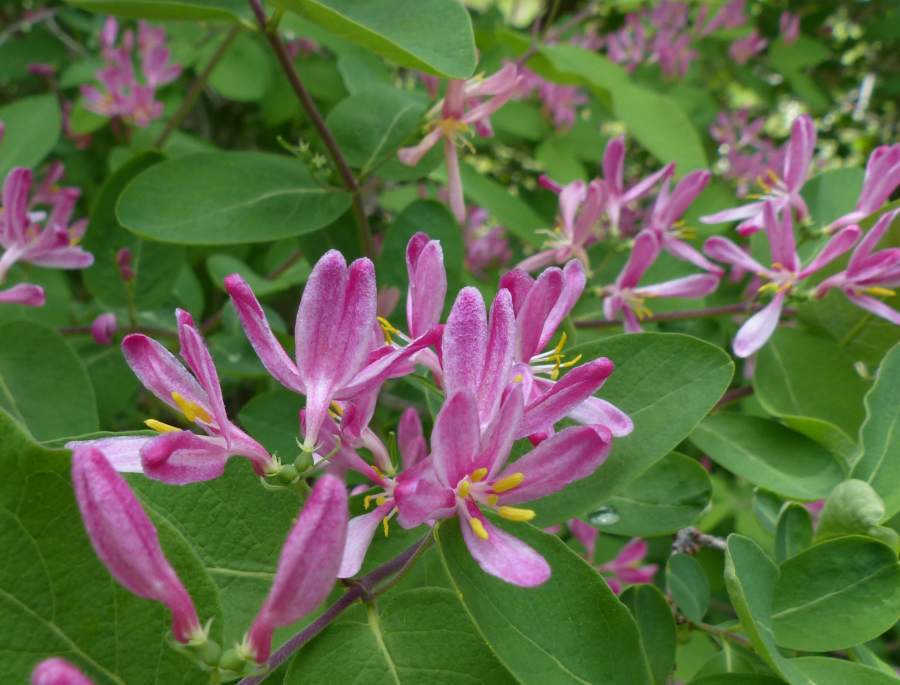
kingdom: Plantae
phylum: Tracheophyta
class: Magnoliopsida
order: Dipsacales
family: Caprifoliaceae
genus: Lonicera
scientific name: Lonicera tatarica
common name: Tatarian honeysuckle
